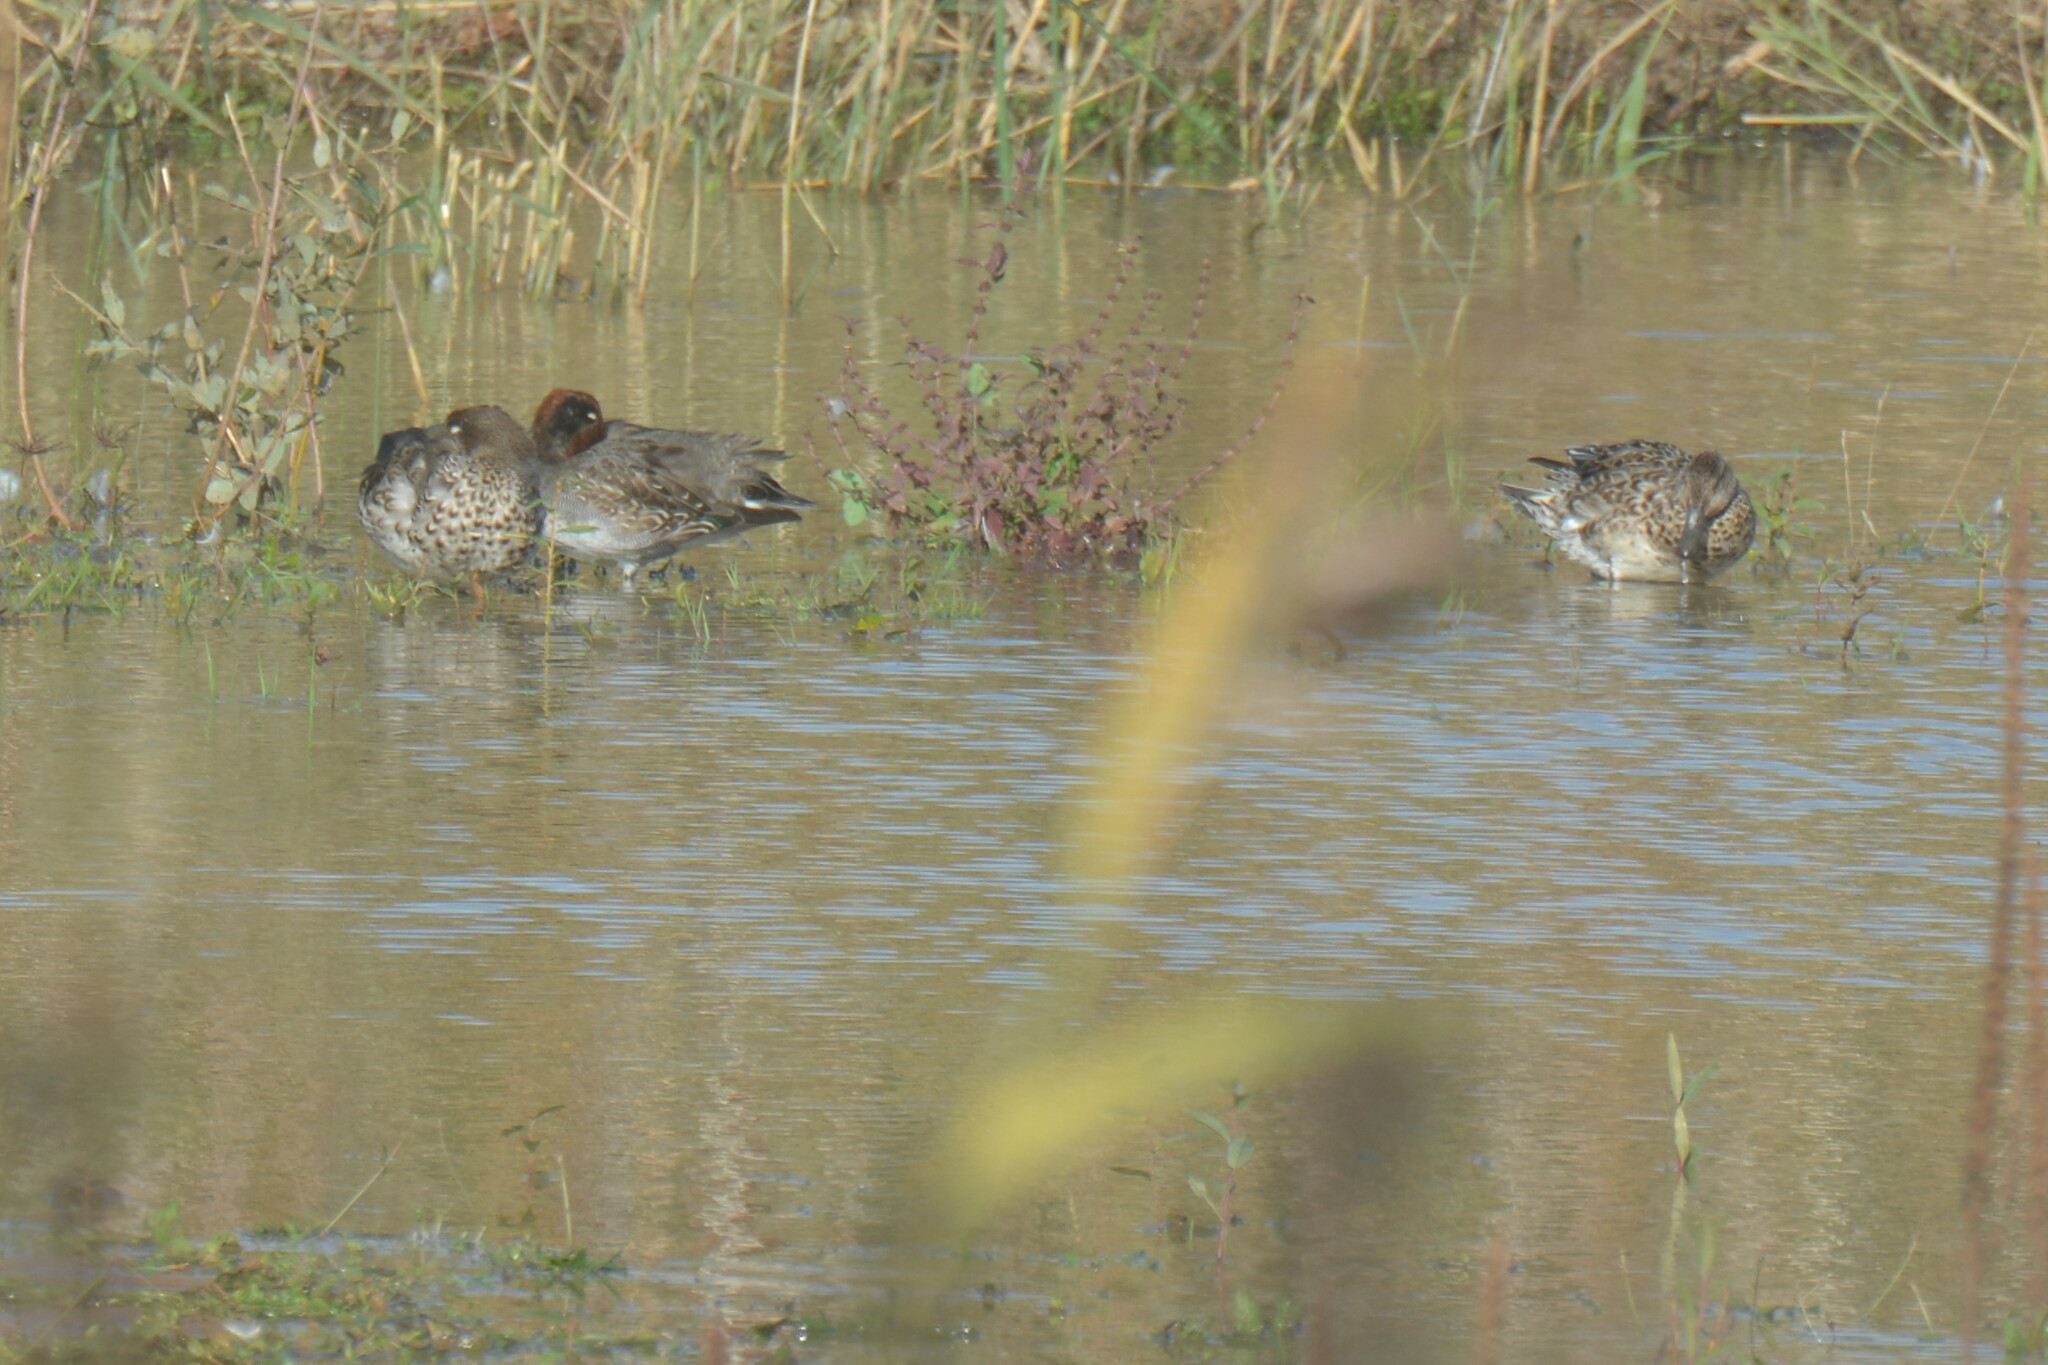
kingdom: Animalia
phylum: Chordata
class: Aves
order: Anseriformes
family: Anatidae
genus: Anas
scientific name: Anas crecca
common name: Eurasian teal
